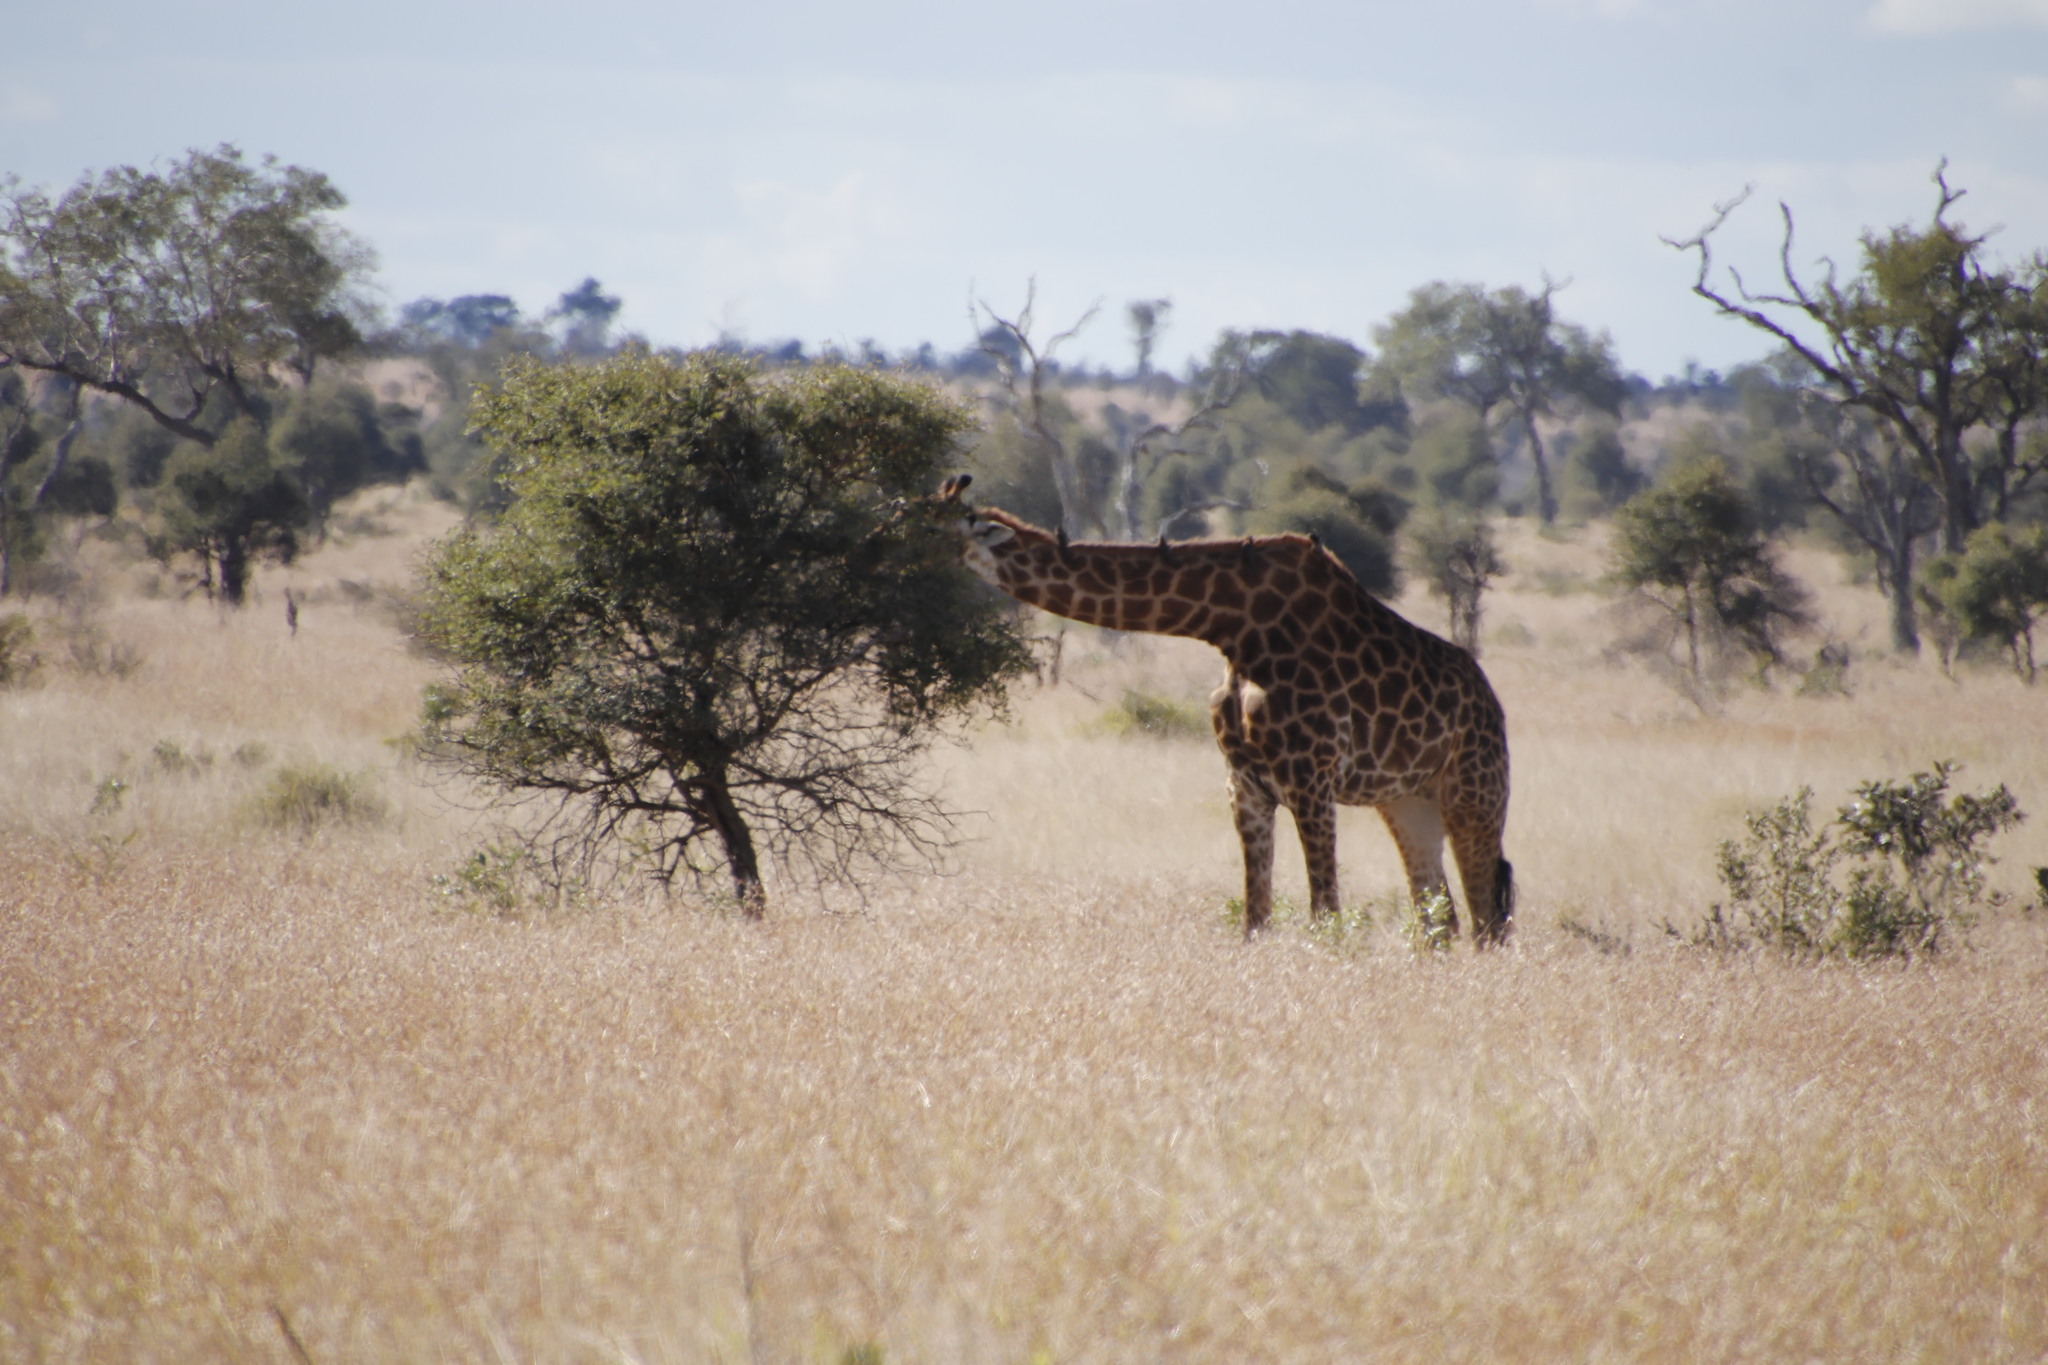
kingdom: Animalia
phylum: Chordata
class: Mammalia
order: Artiodactyla
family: Giraffidae
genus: Giraffa
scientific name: Giraffa giraffa
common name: Southern giraffe
